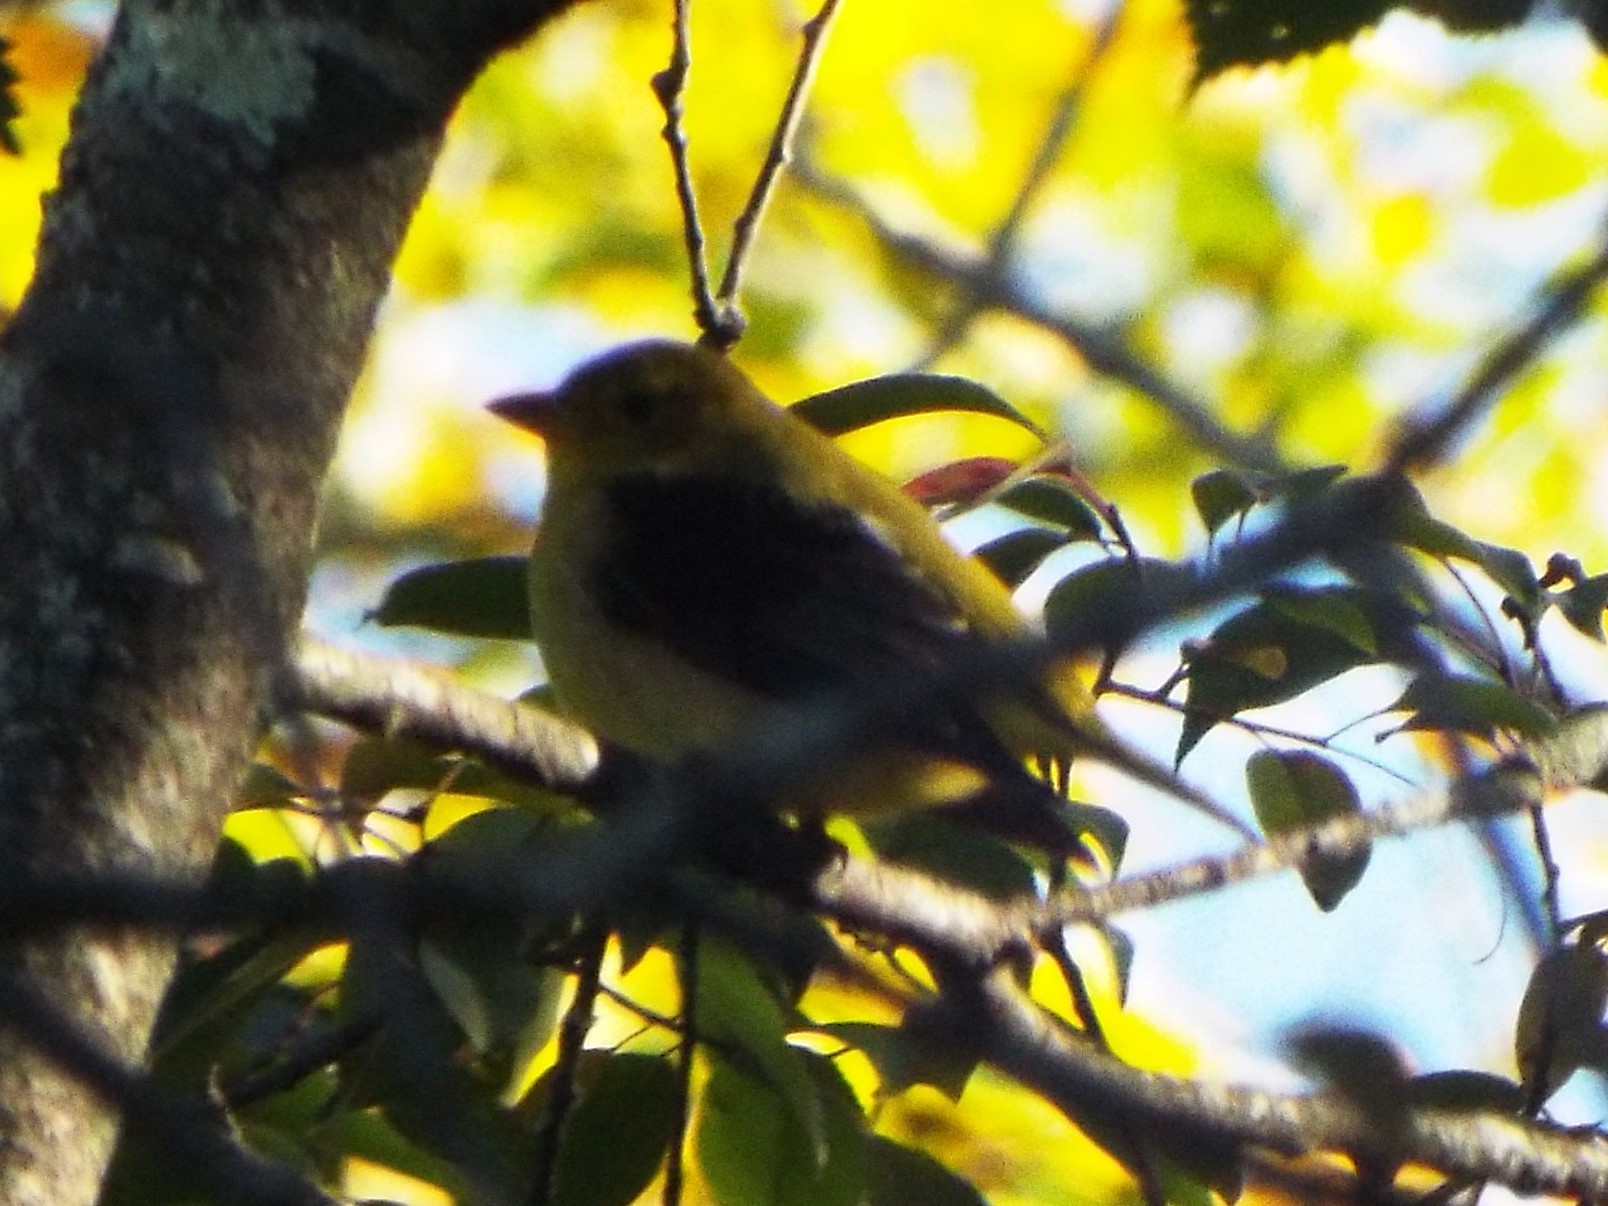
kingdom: Animalia
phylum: Chordata
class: Aves
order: Passeriformes
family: Cardinalidae
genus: Piranga
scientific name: Piranga olivacea
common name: Scarlet tanager
